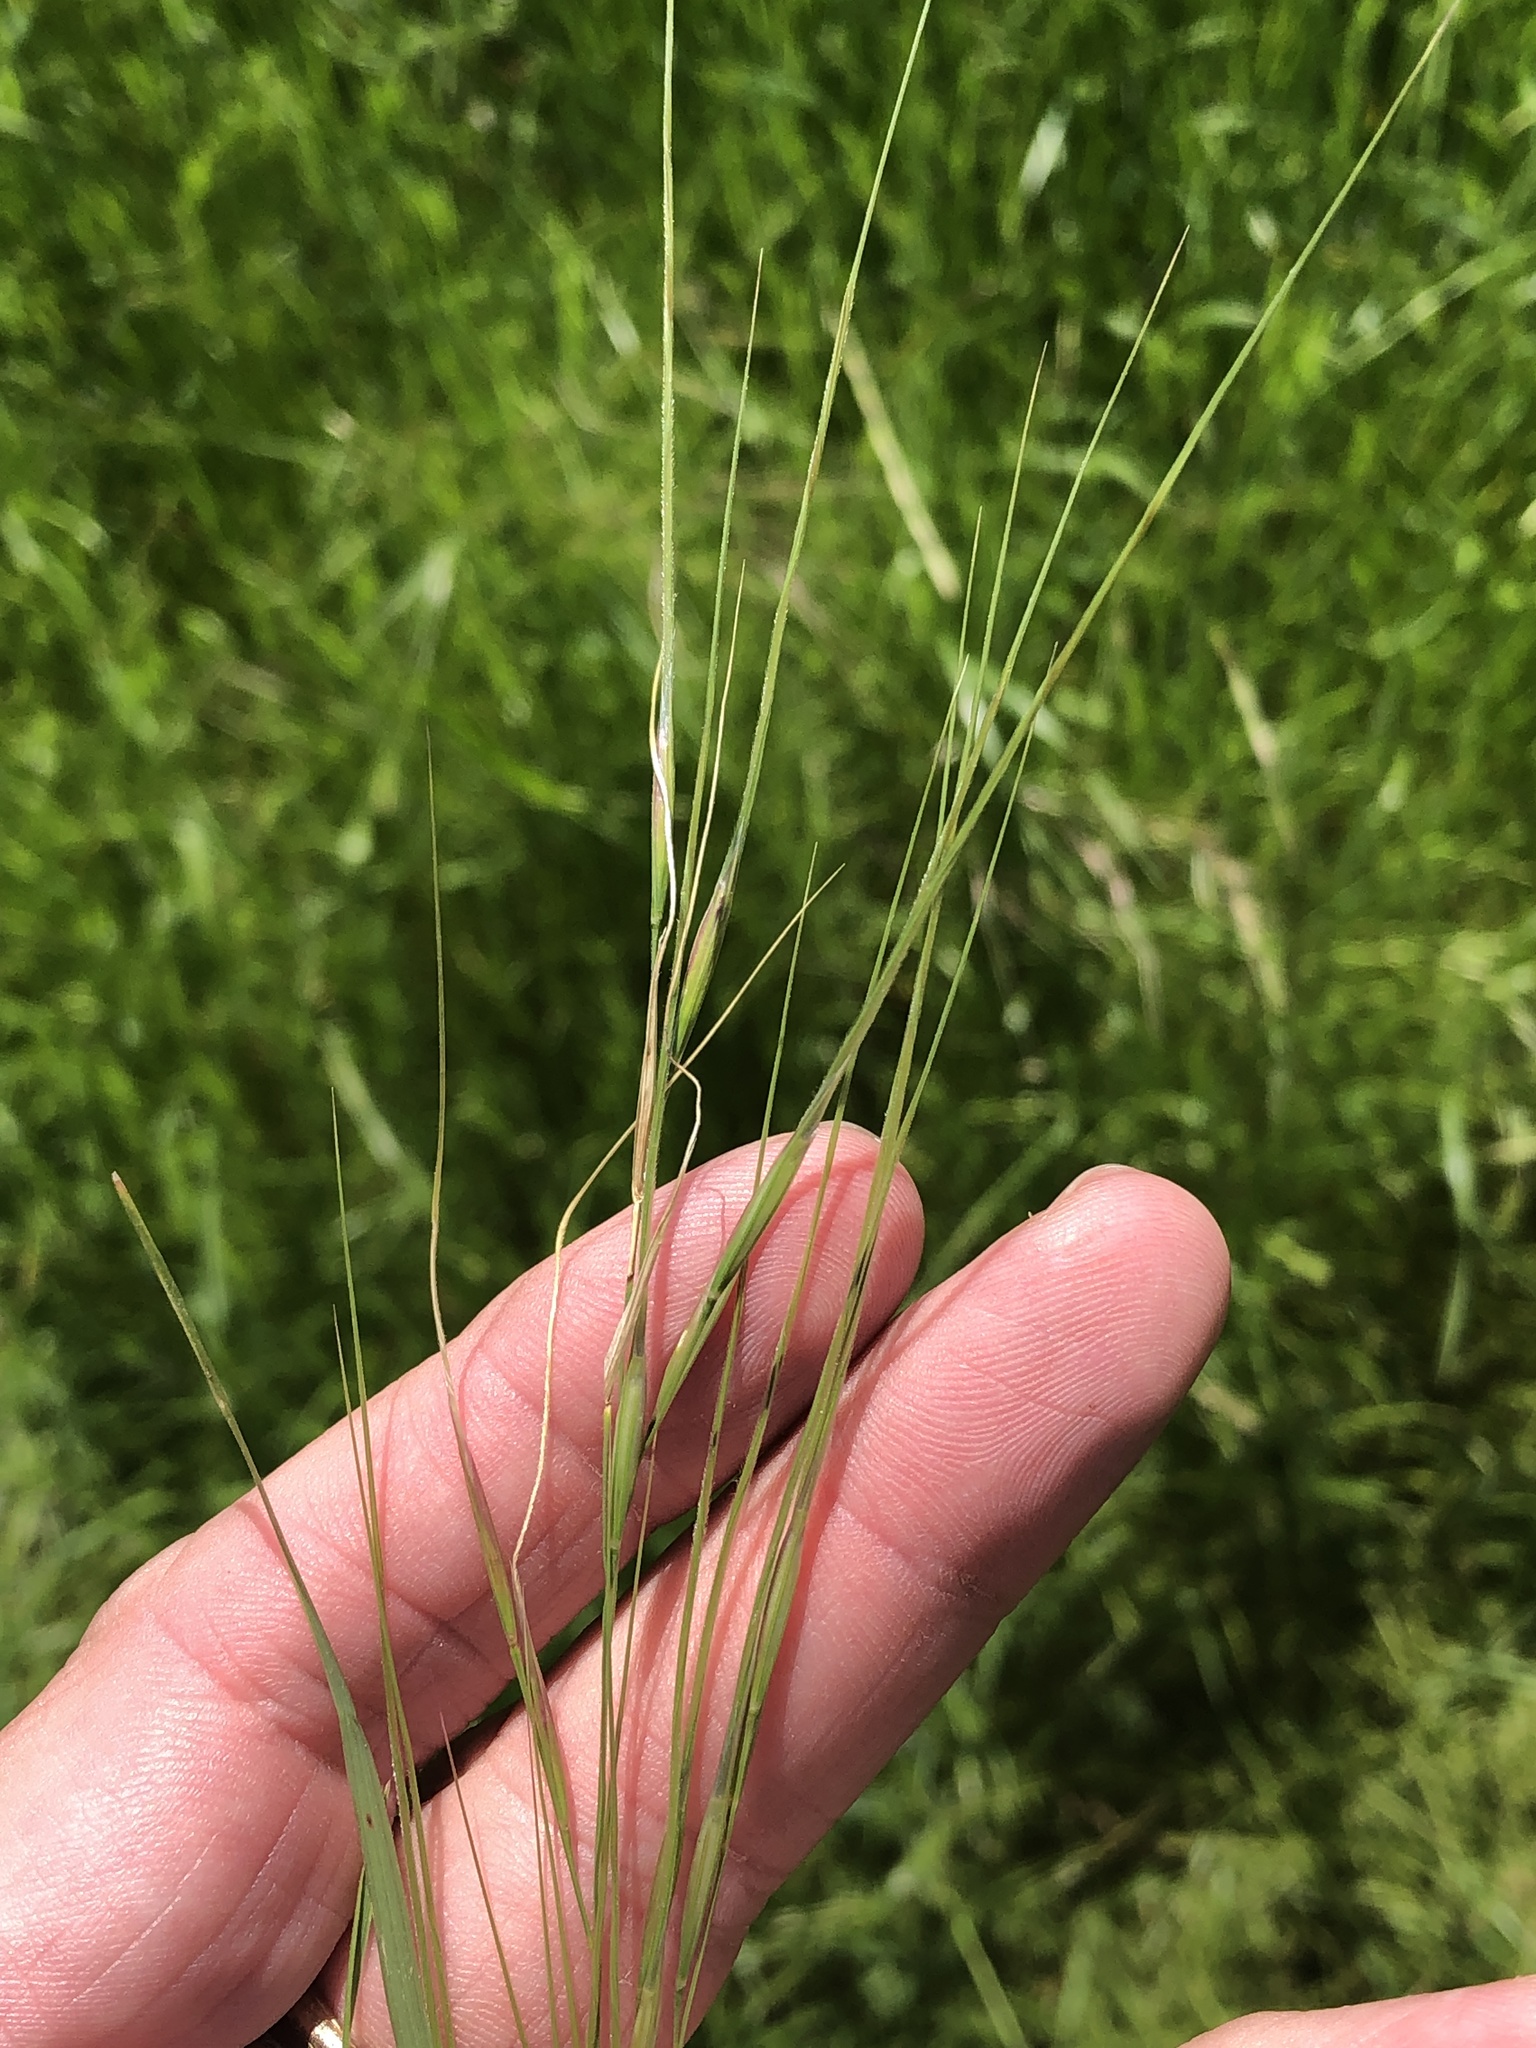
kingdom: Plantae
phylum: Tracheophyta
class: Liliopsida
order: Poales
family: Poaceae
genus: Nassella
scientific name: Nassella leucotricha
